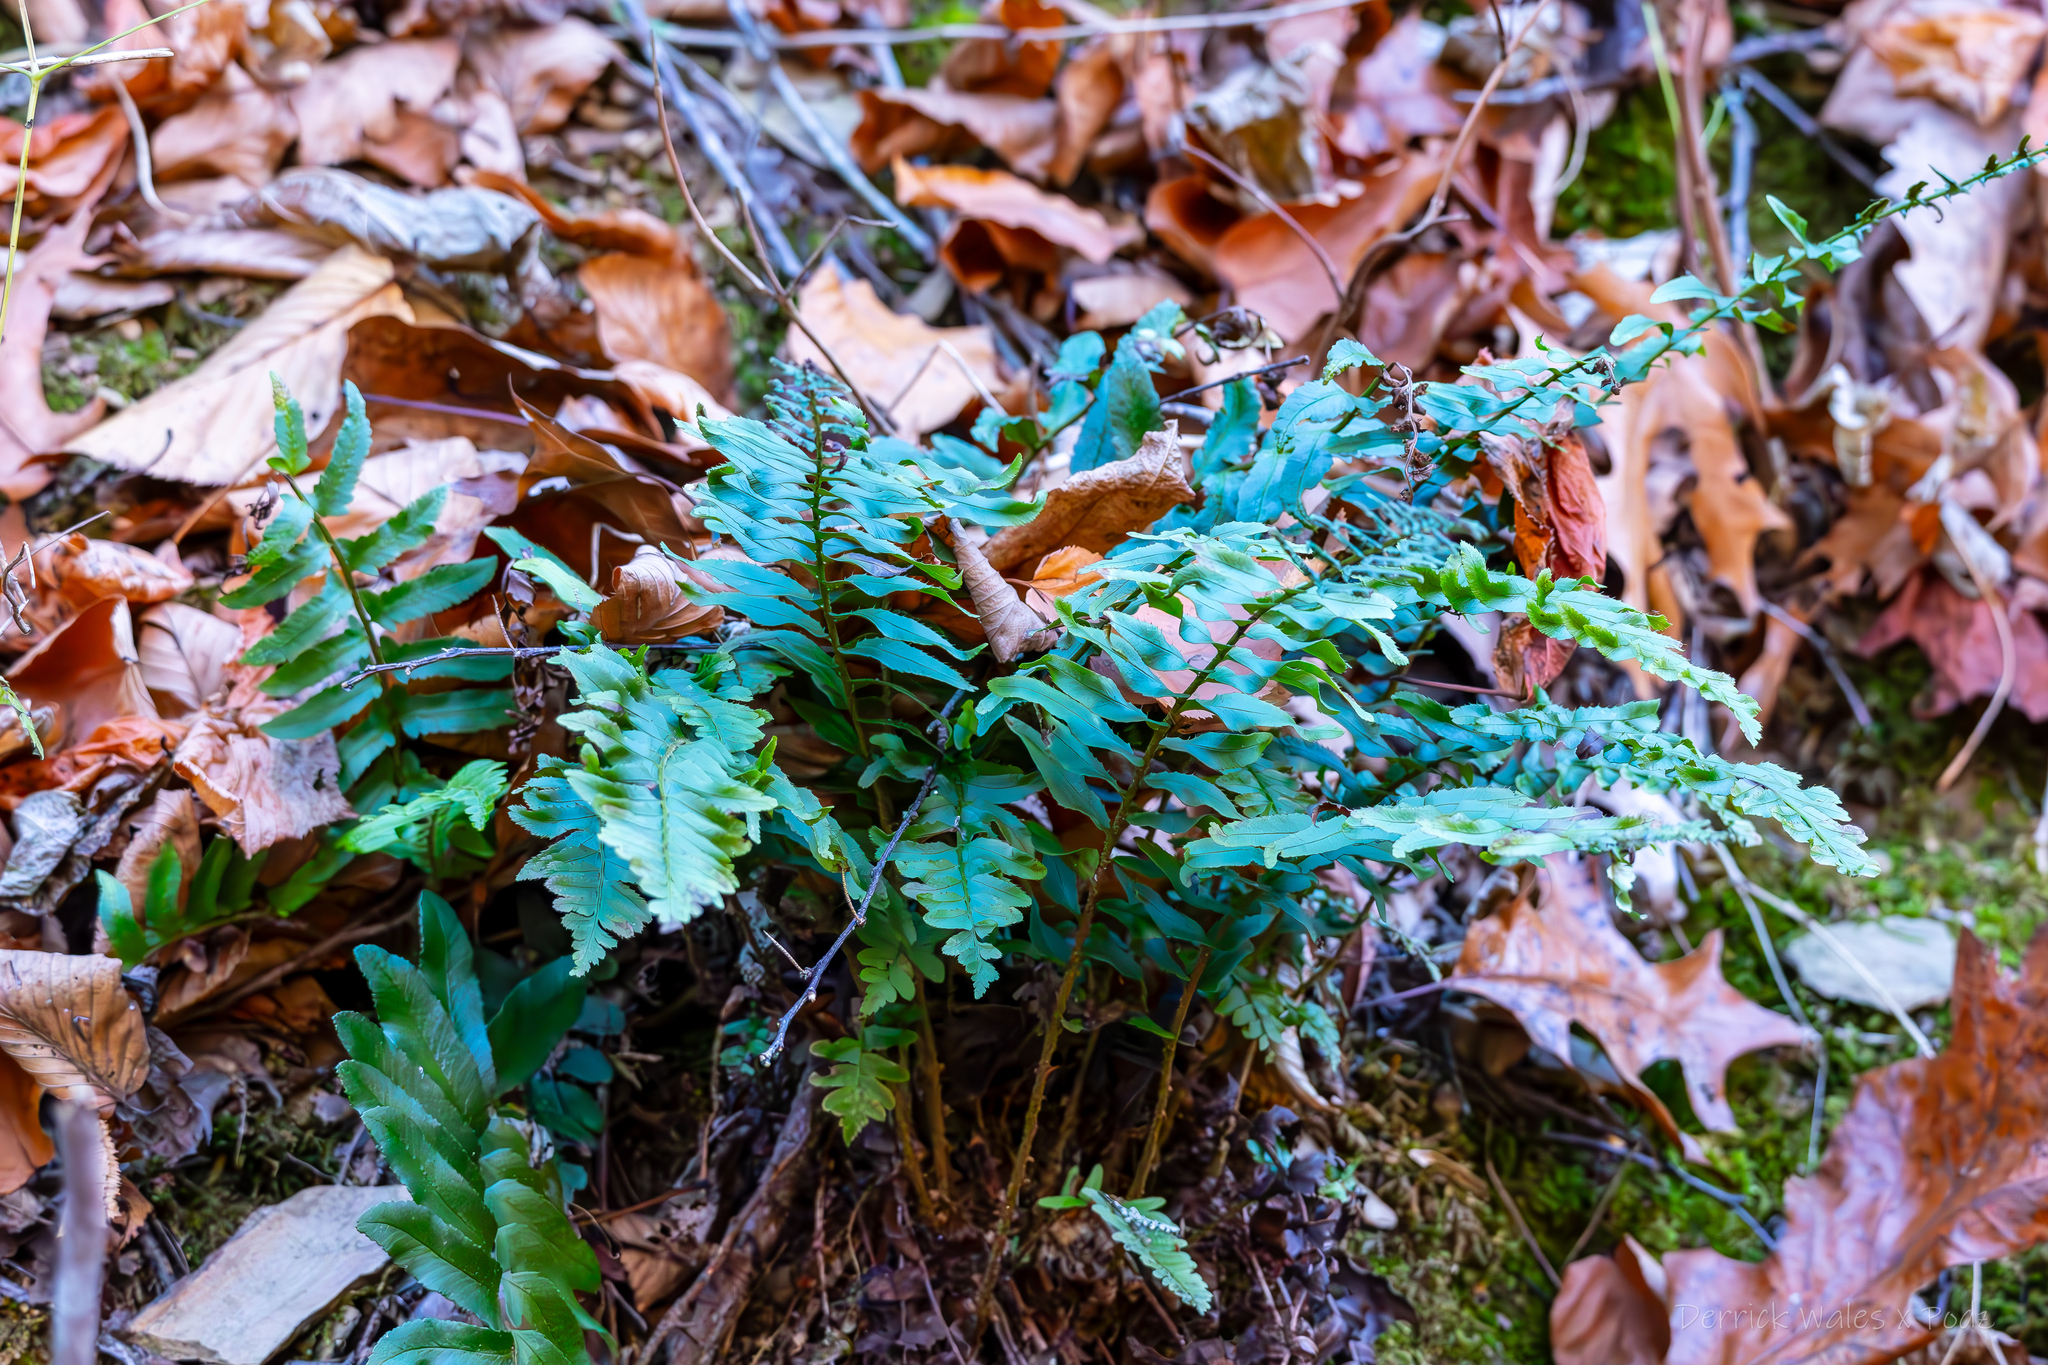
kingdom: Plantae
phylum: Tracheophyta
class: Polypodiopsida
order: Polypodiales
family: Dryopteridaceae
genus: Polystichum
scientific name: Polystichum acrostichoides
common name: Christmas fern
